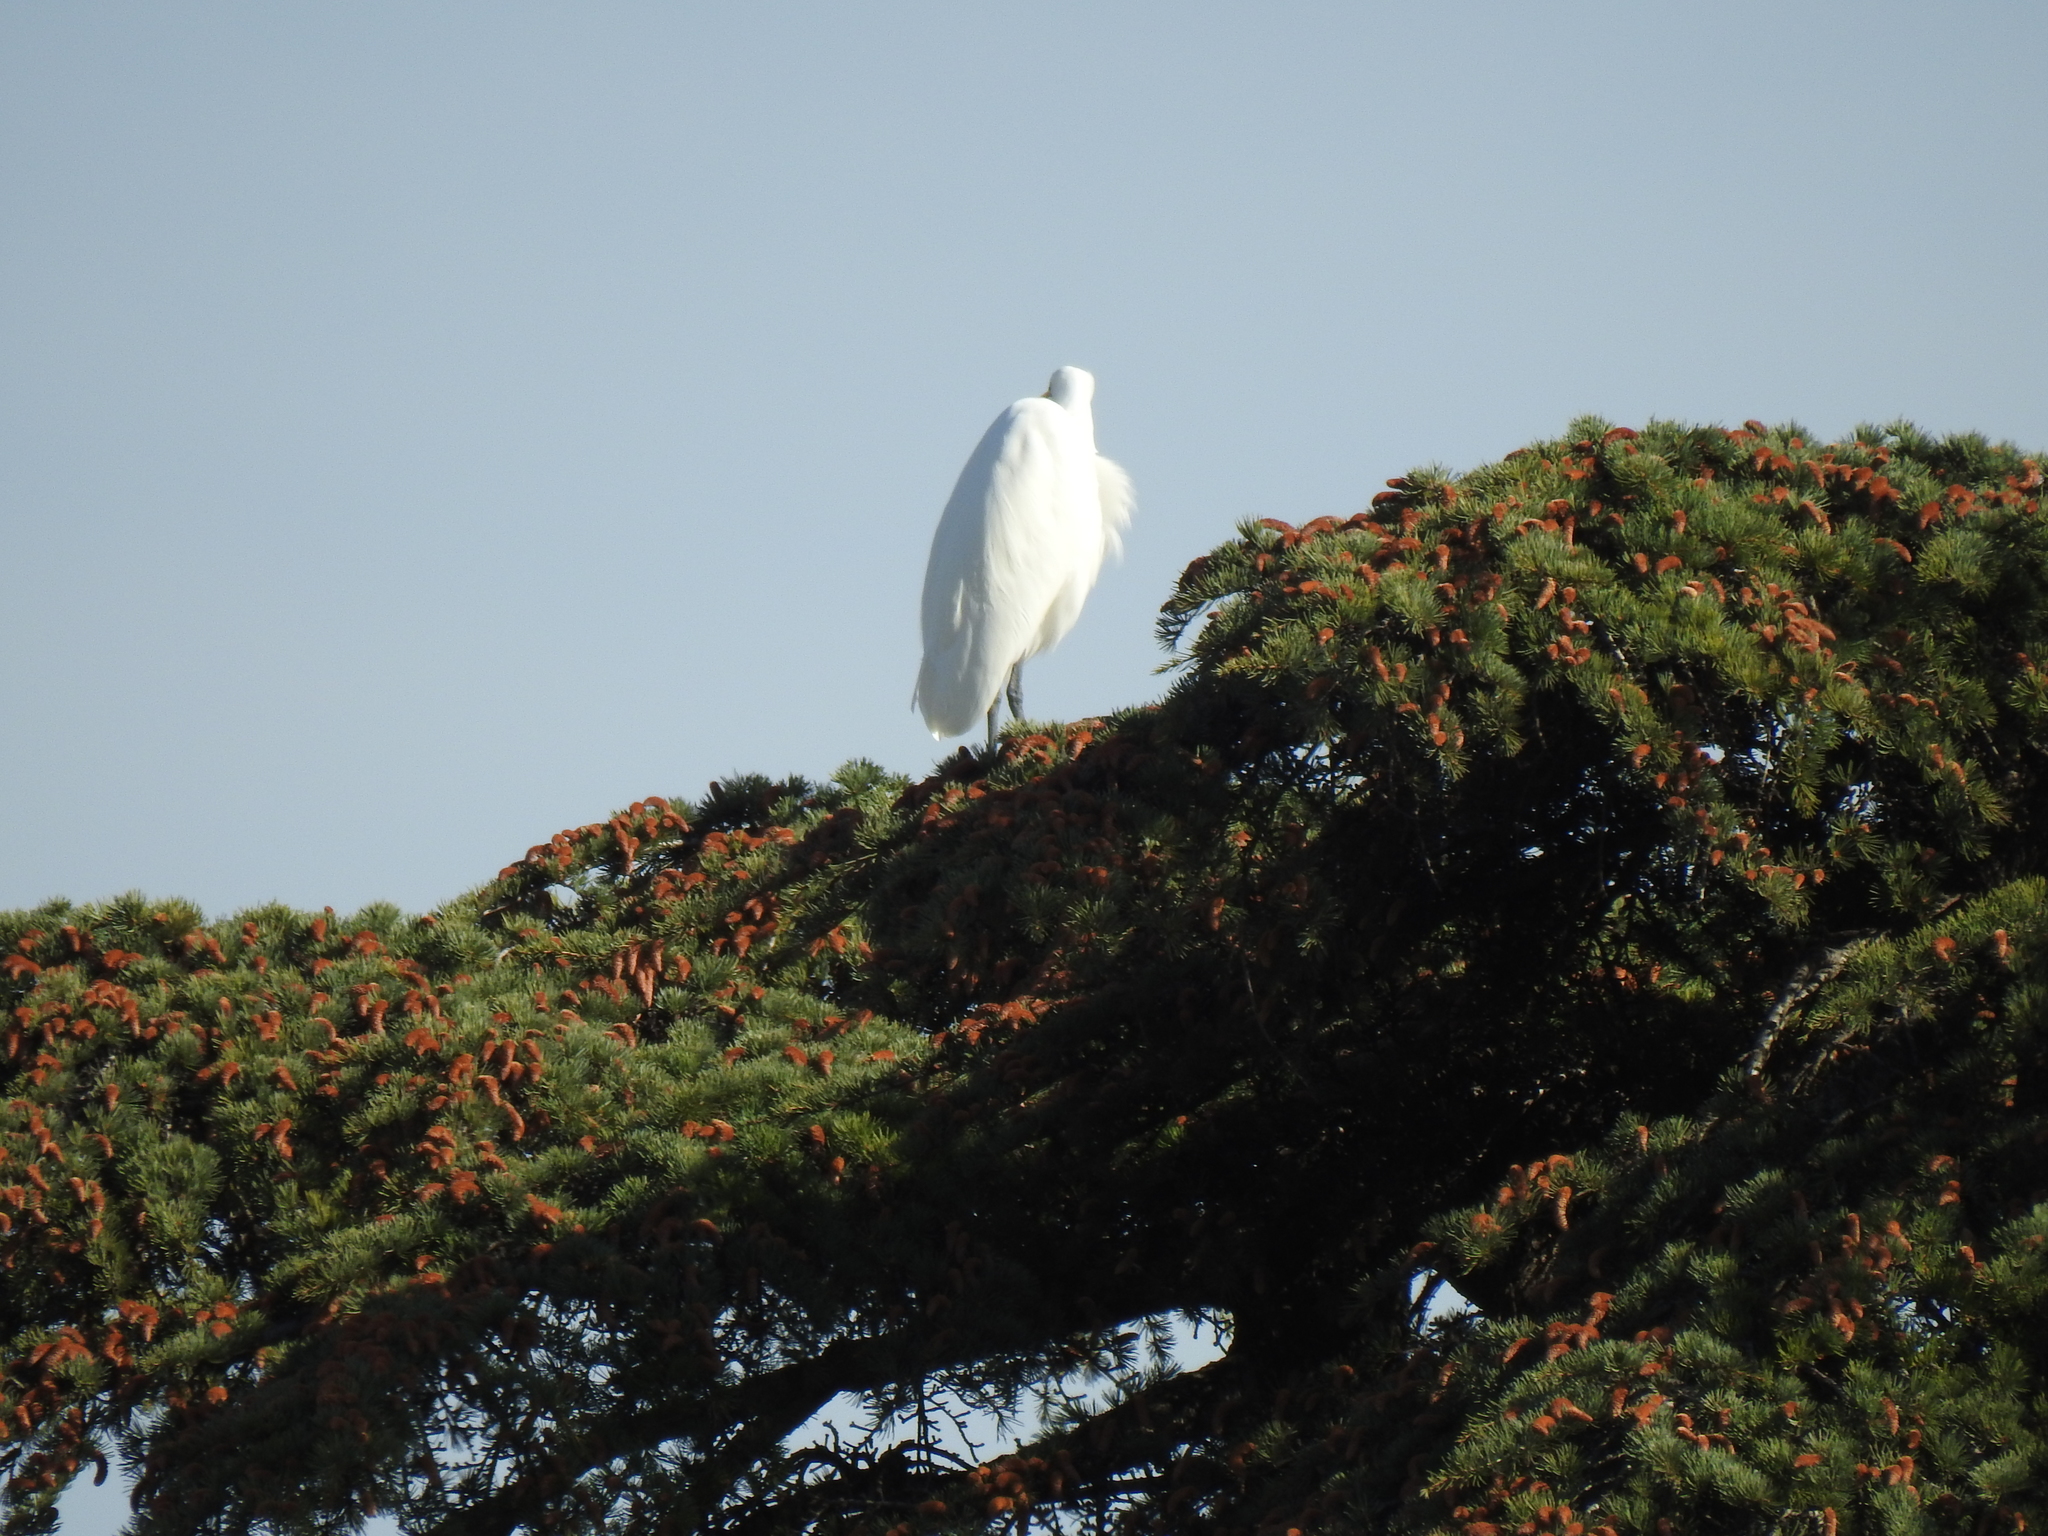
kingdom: Animalia
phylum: Chordata
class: Aves
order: Pelecaniformes
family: Ardeidae
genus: Ardea
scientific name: Ardea alba
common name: Great egret
